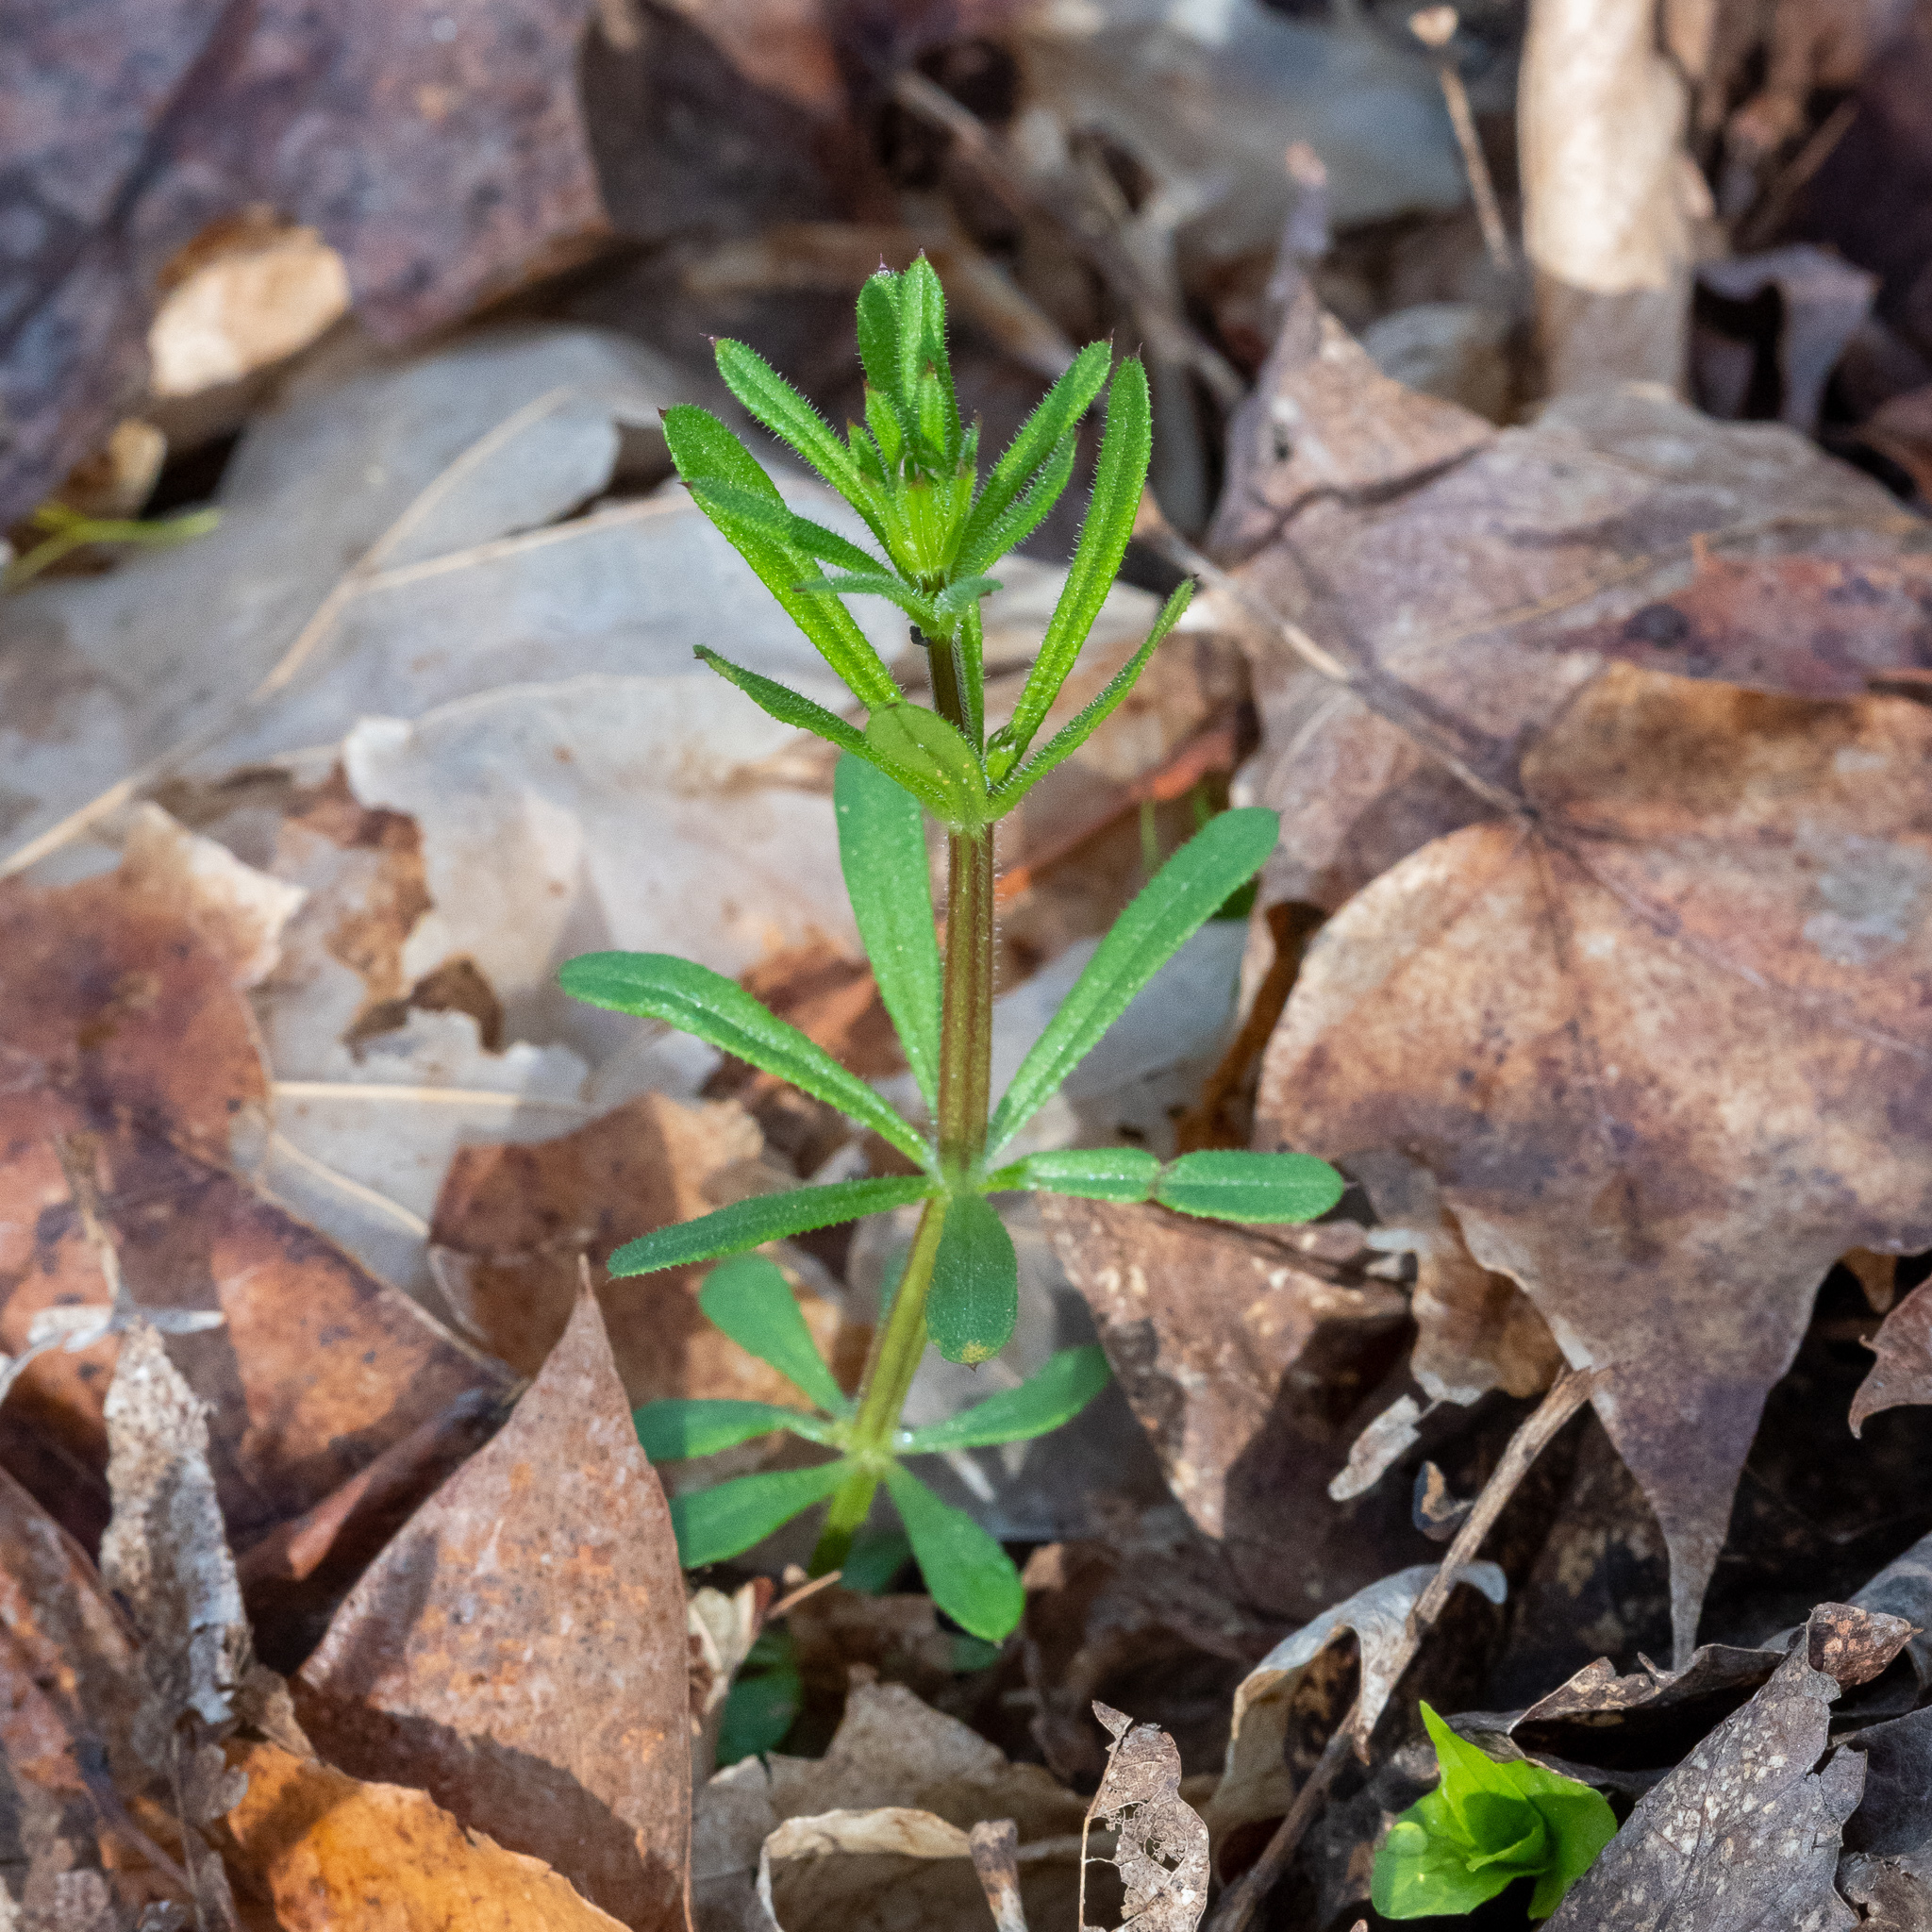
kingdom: Plantae
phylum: Tracheophyta
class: Magnoliopsida
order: Gentianales
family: Rubiaceae
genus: Galium
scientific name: Galium aparine
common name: Cleavers
